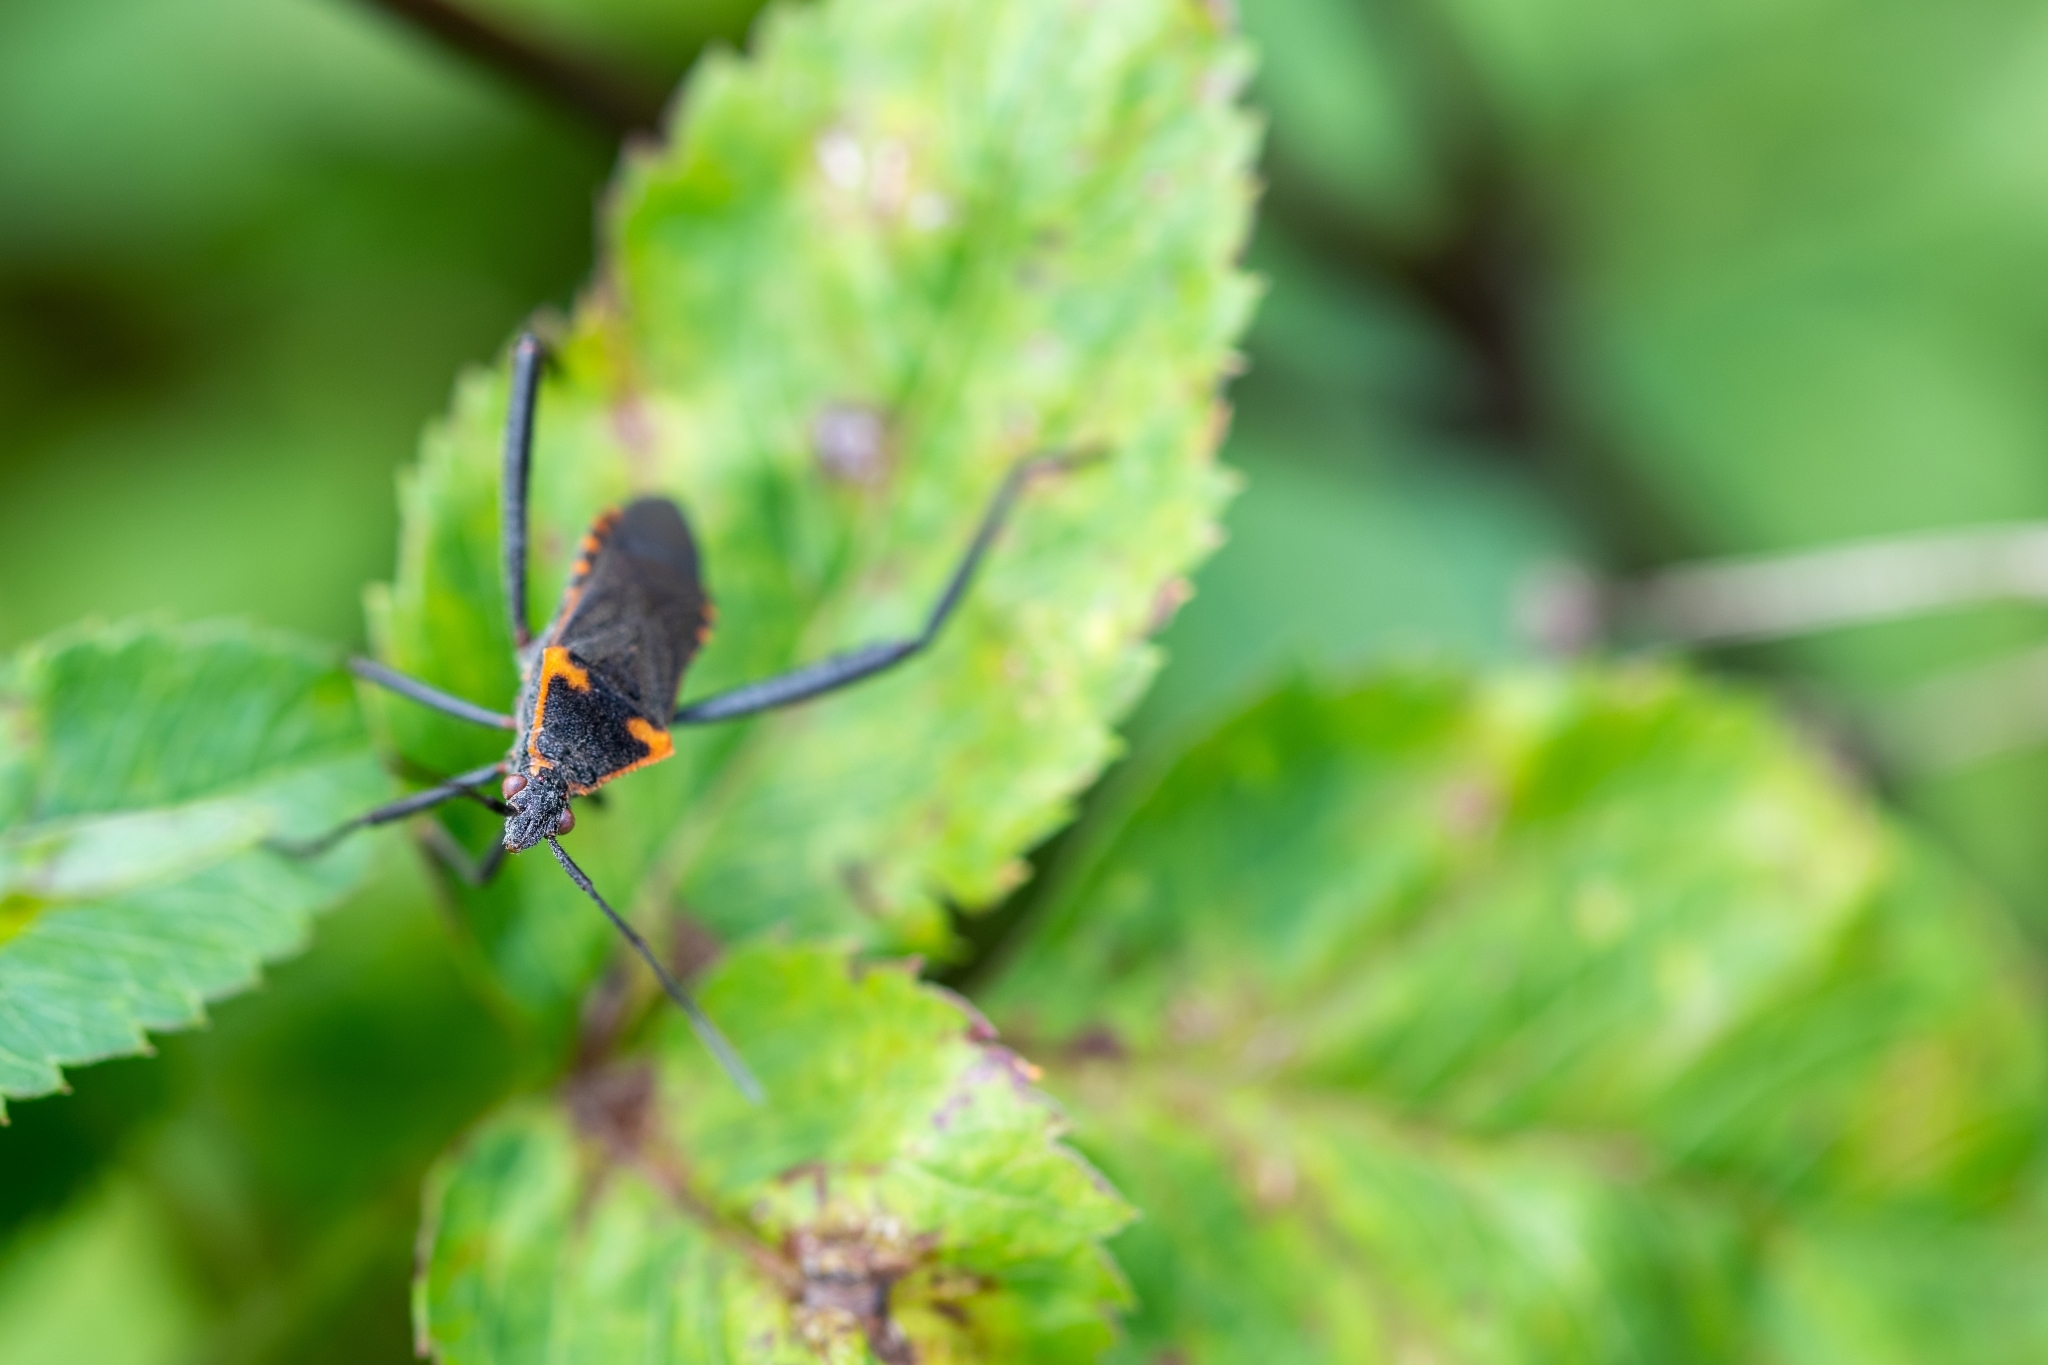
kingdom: Animalia
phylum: Arthropoda
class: Insecta
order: Hemiptera
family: Coreidae
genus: Phthiacnemia
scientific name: Phthiacnemia picta
